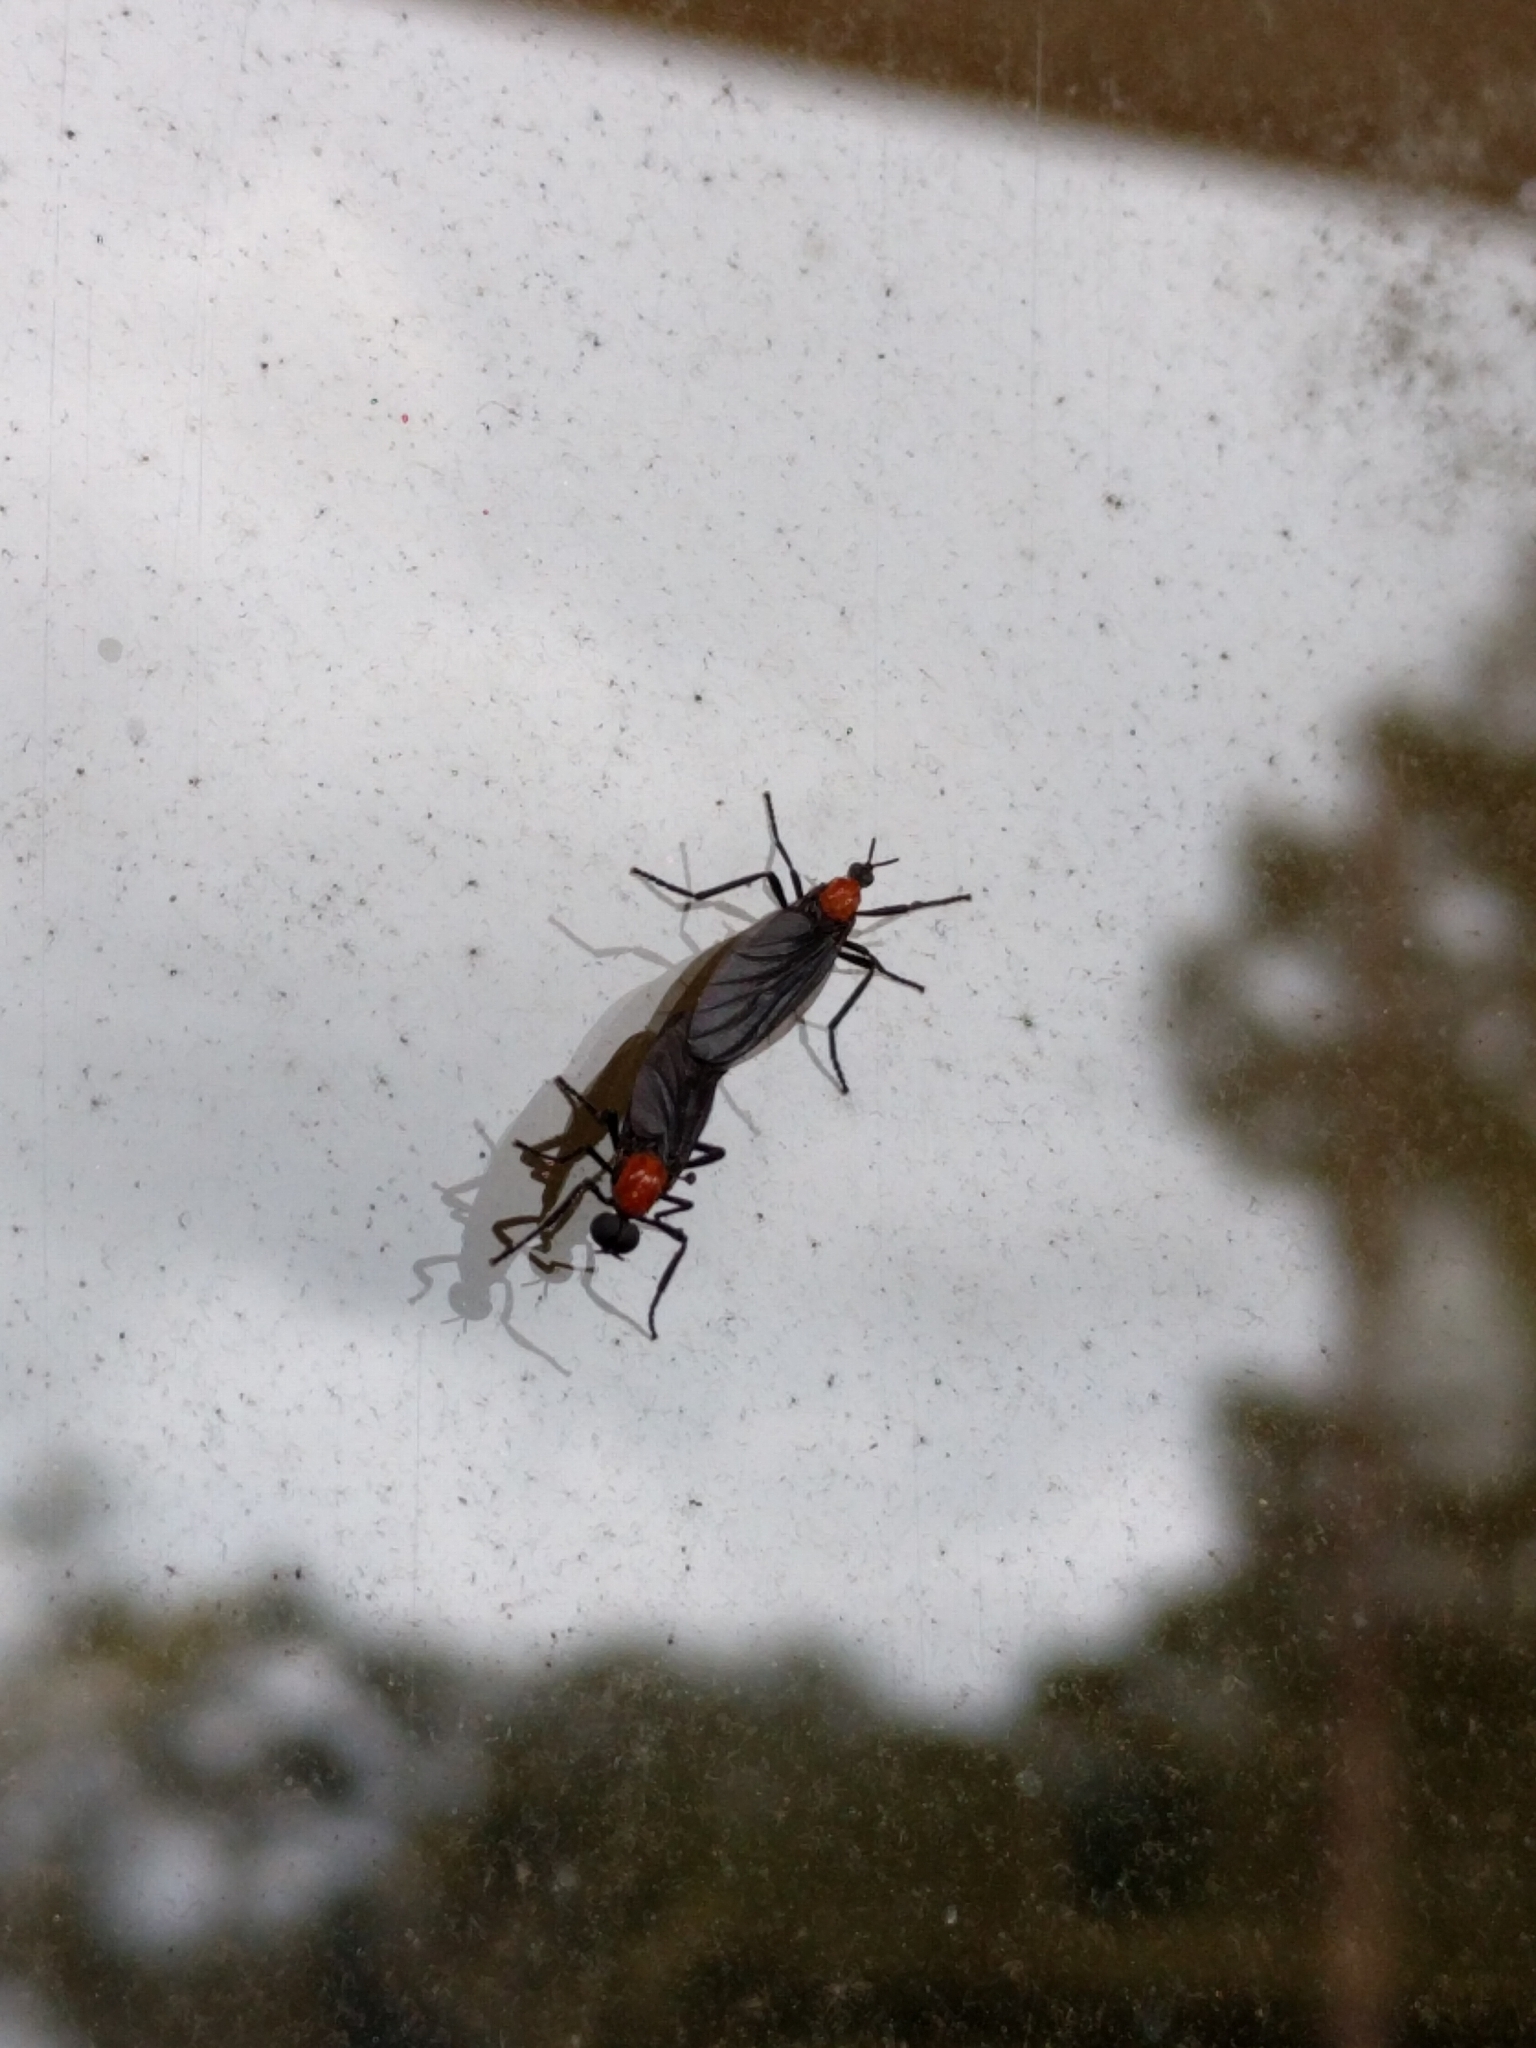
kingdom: Animalia
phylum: Arthropoda
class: Insecta
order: Diptera
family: Bibionidae
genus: Plecia
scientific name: Plecia nearctica
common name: March fly
